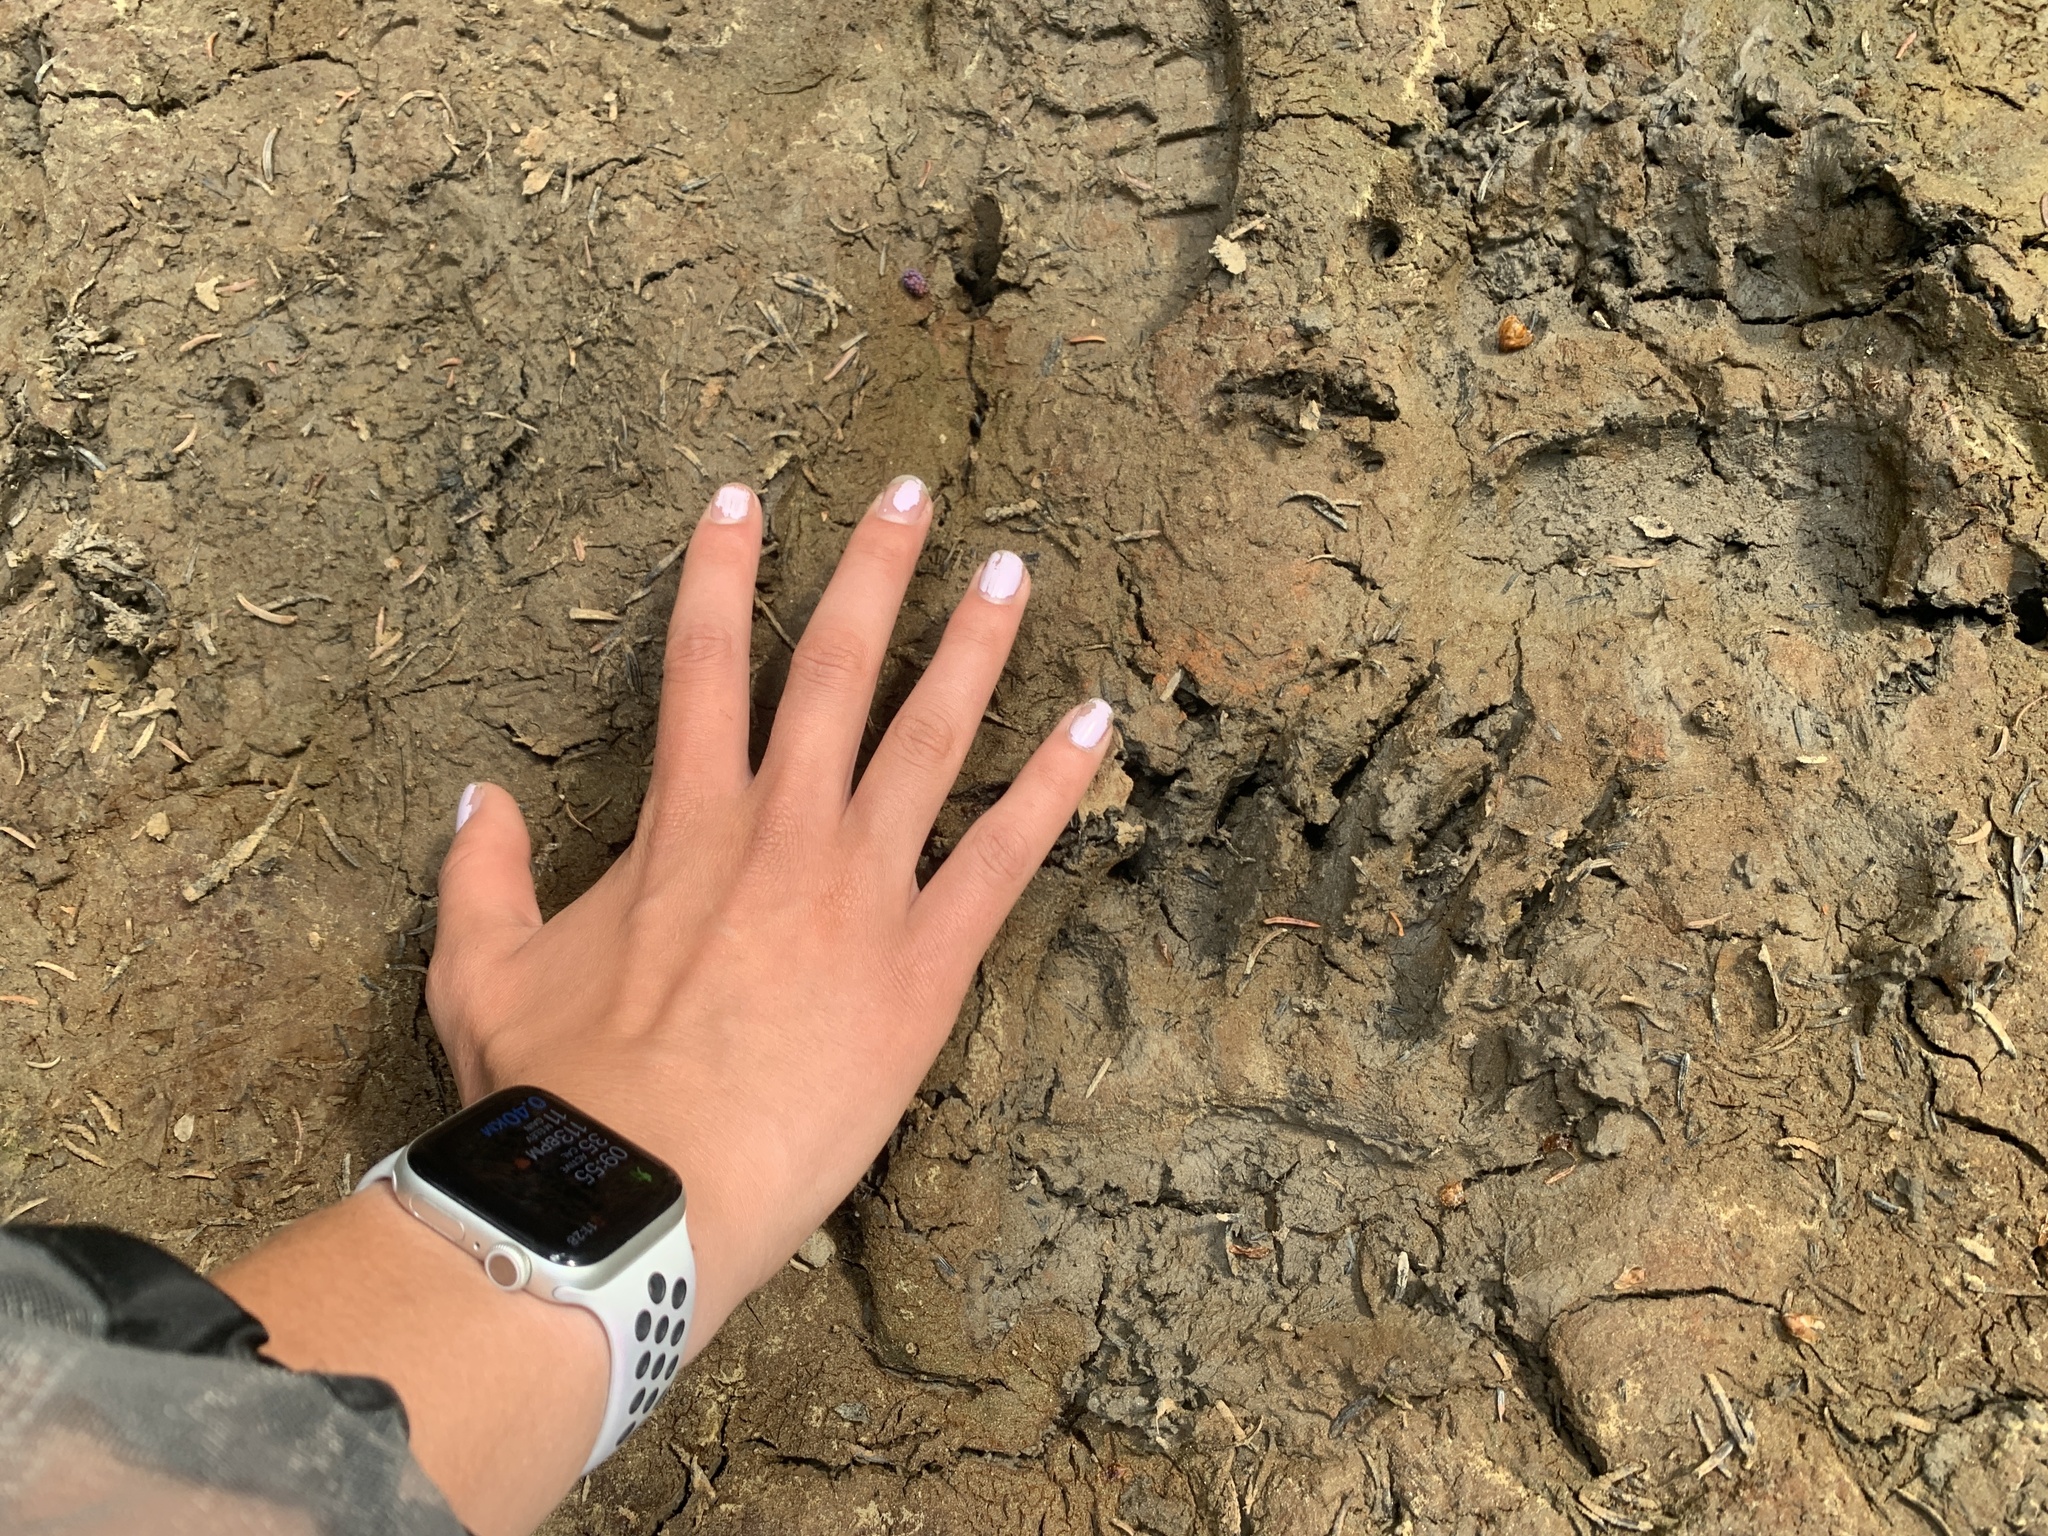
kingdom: Animalia
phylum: Chordata
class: Mammalia
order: Carnivora
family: Ursidae
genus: Ursus
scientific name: Ursus arctos
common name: Brown bear
